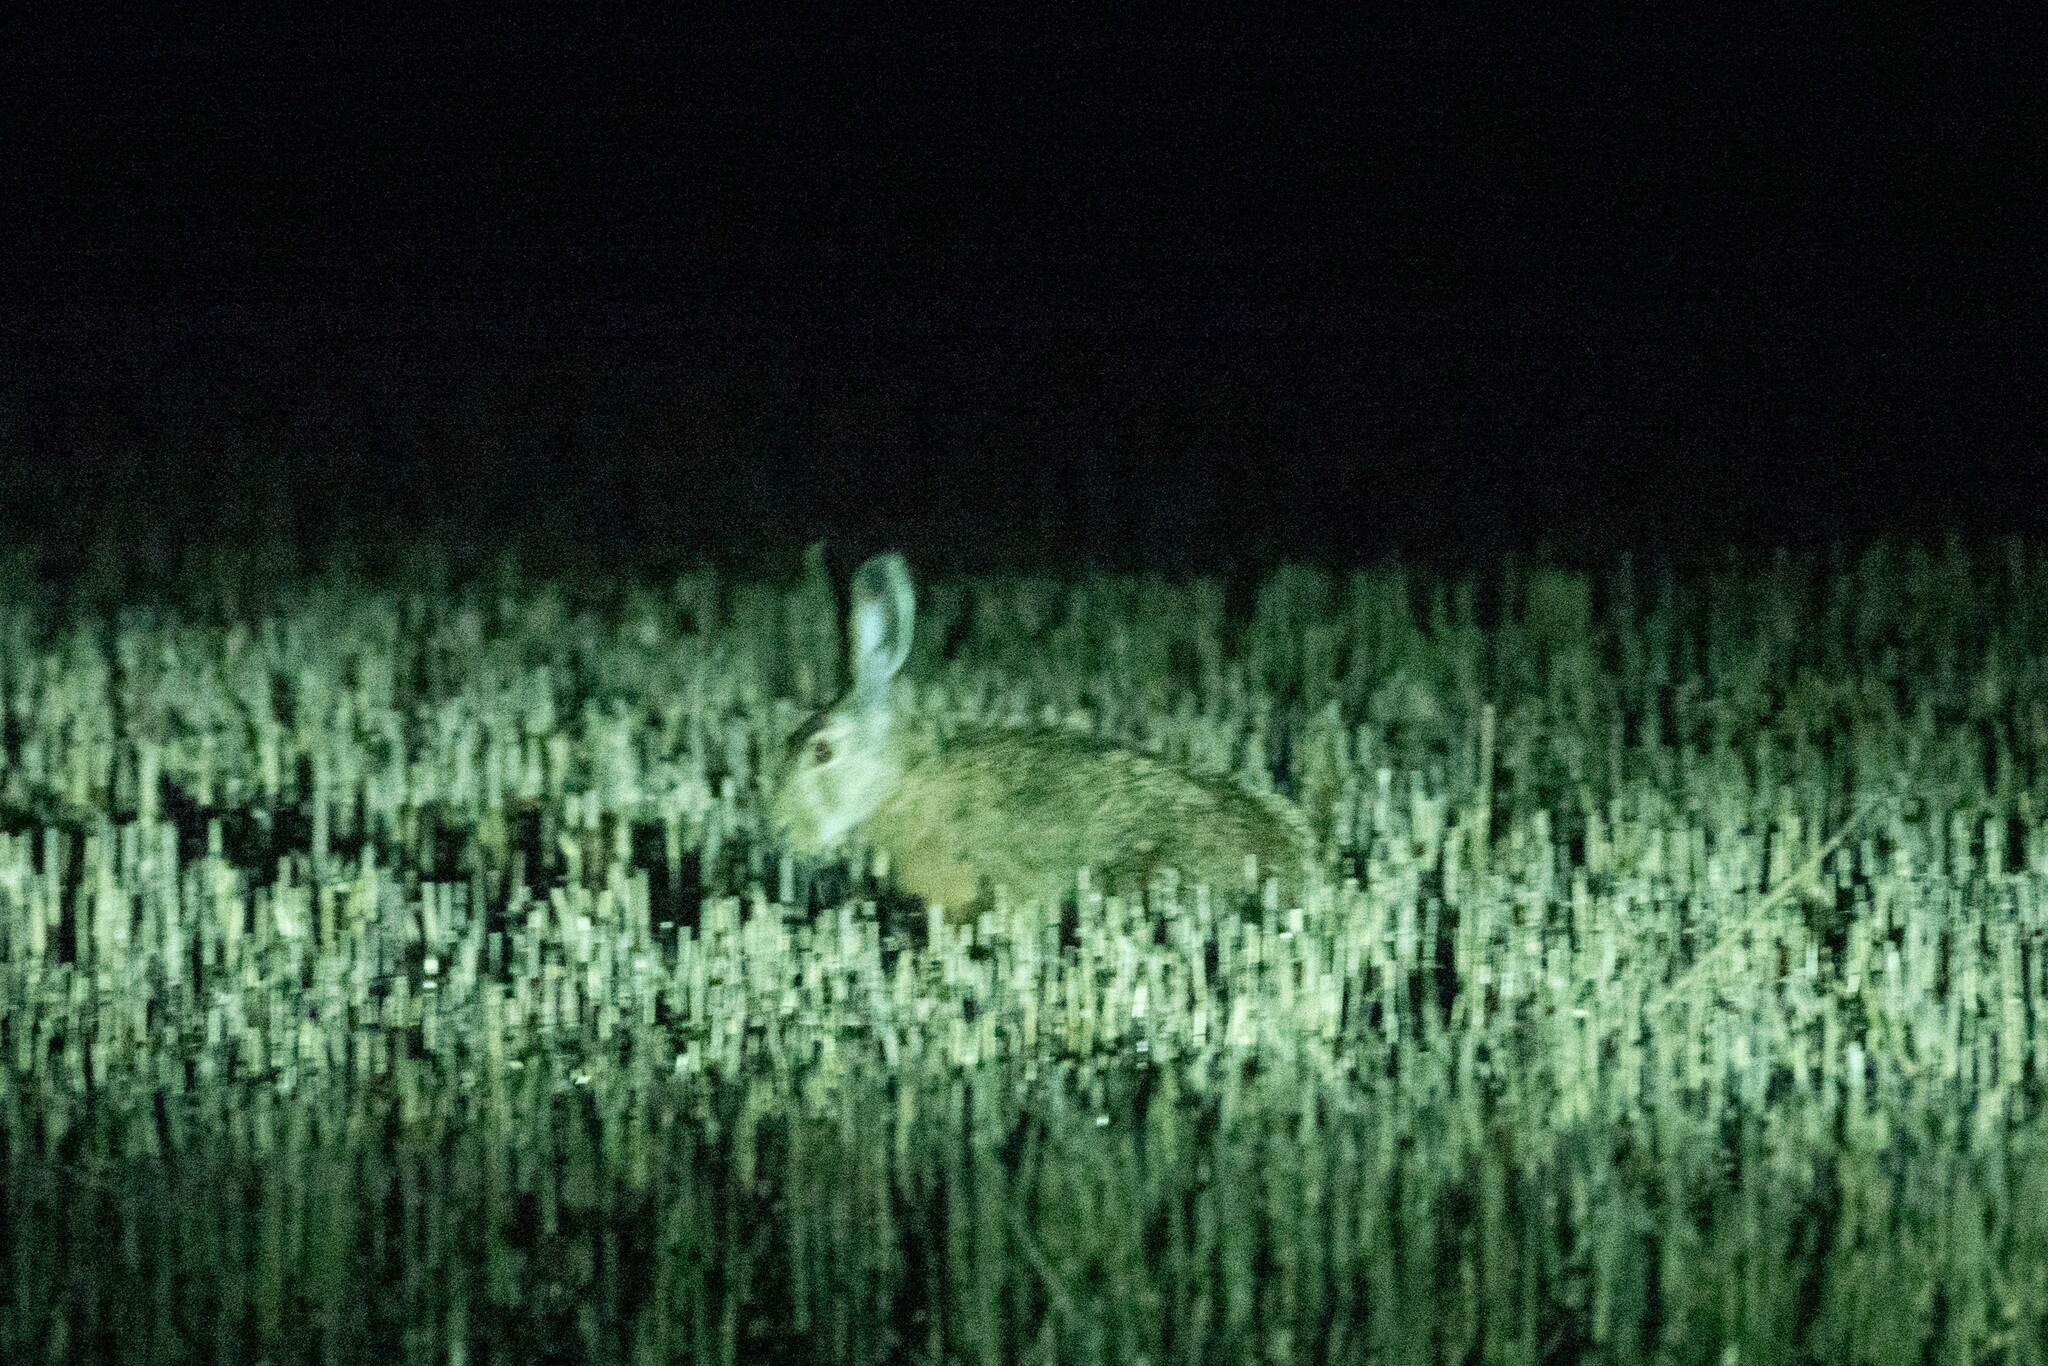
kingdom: Animalia
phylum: Chordata
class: Mammalia
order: Lagomorpha
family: Leporidae
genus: Lepus
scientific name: Lepus europaeus
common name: European hare
